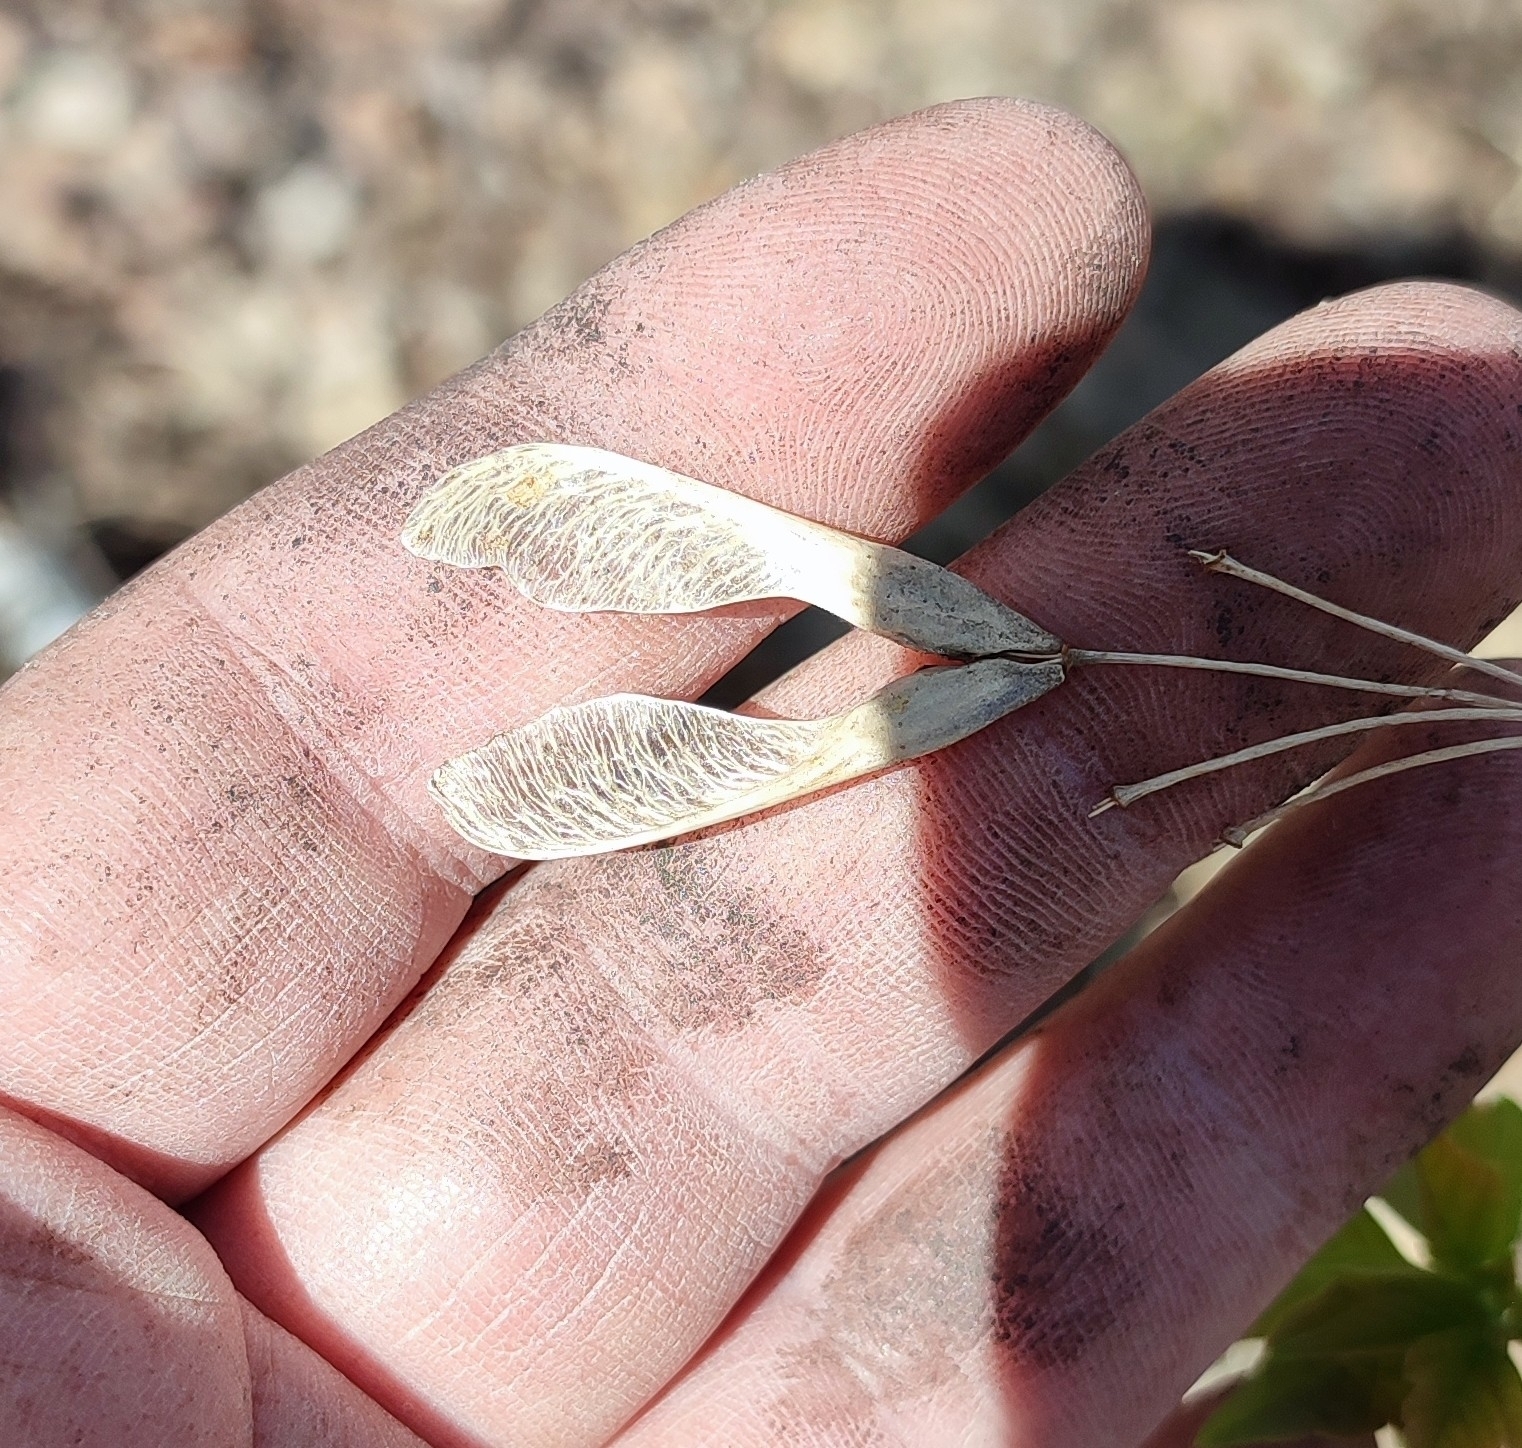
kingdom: Plantae
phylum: Tracheophyta
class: Magnoliopsida
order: Sapindales
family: Sapindaceae
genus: Acer
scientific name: Acer negundo
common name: Ashleaf maple
